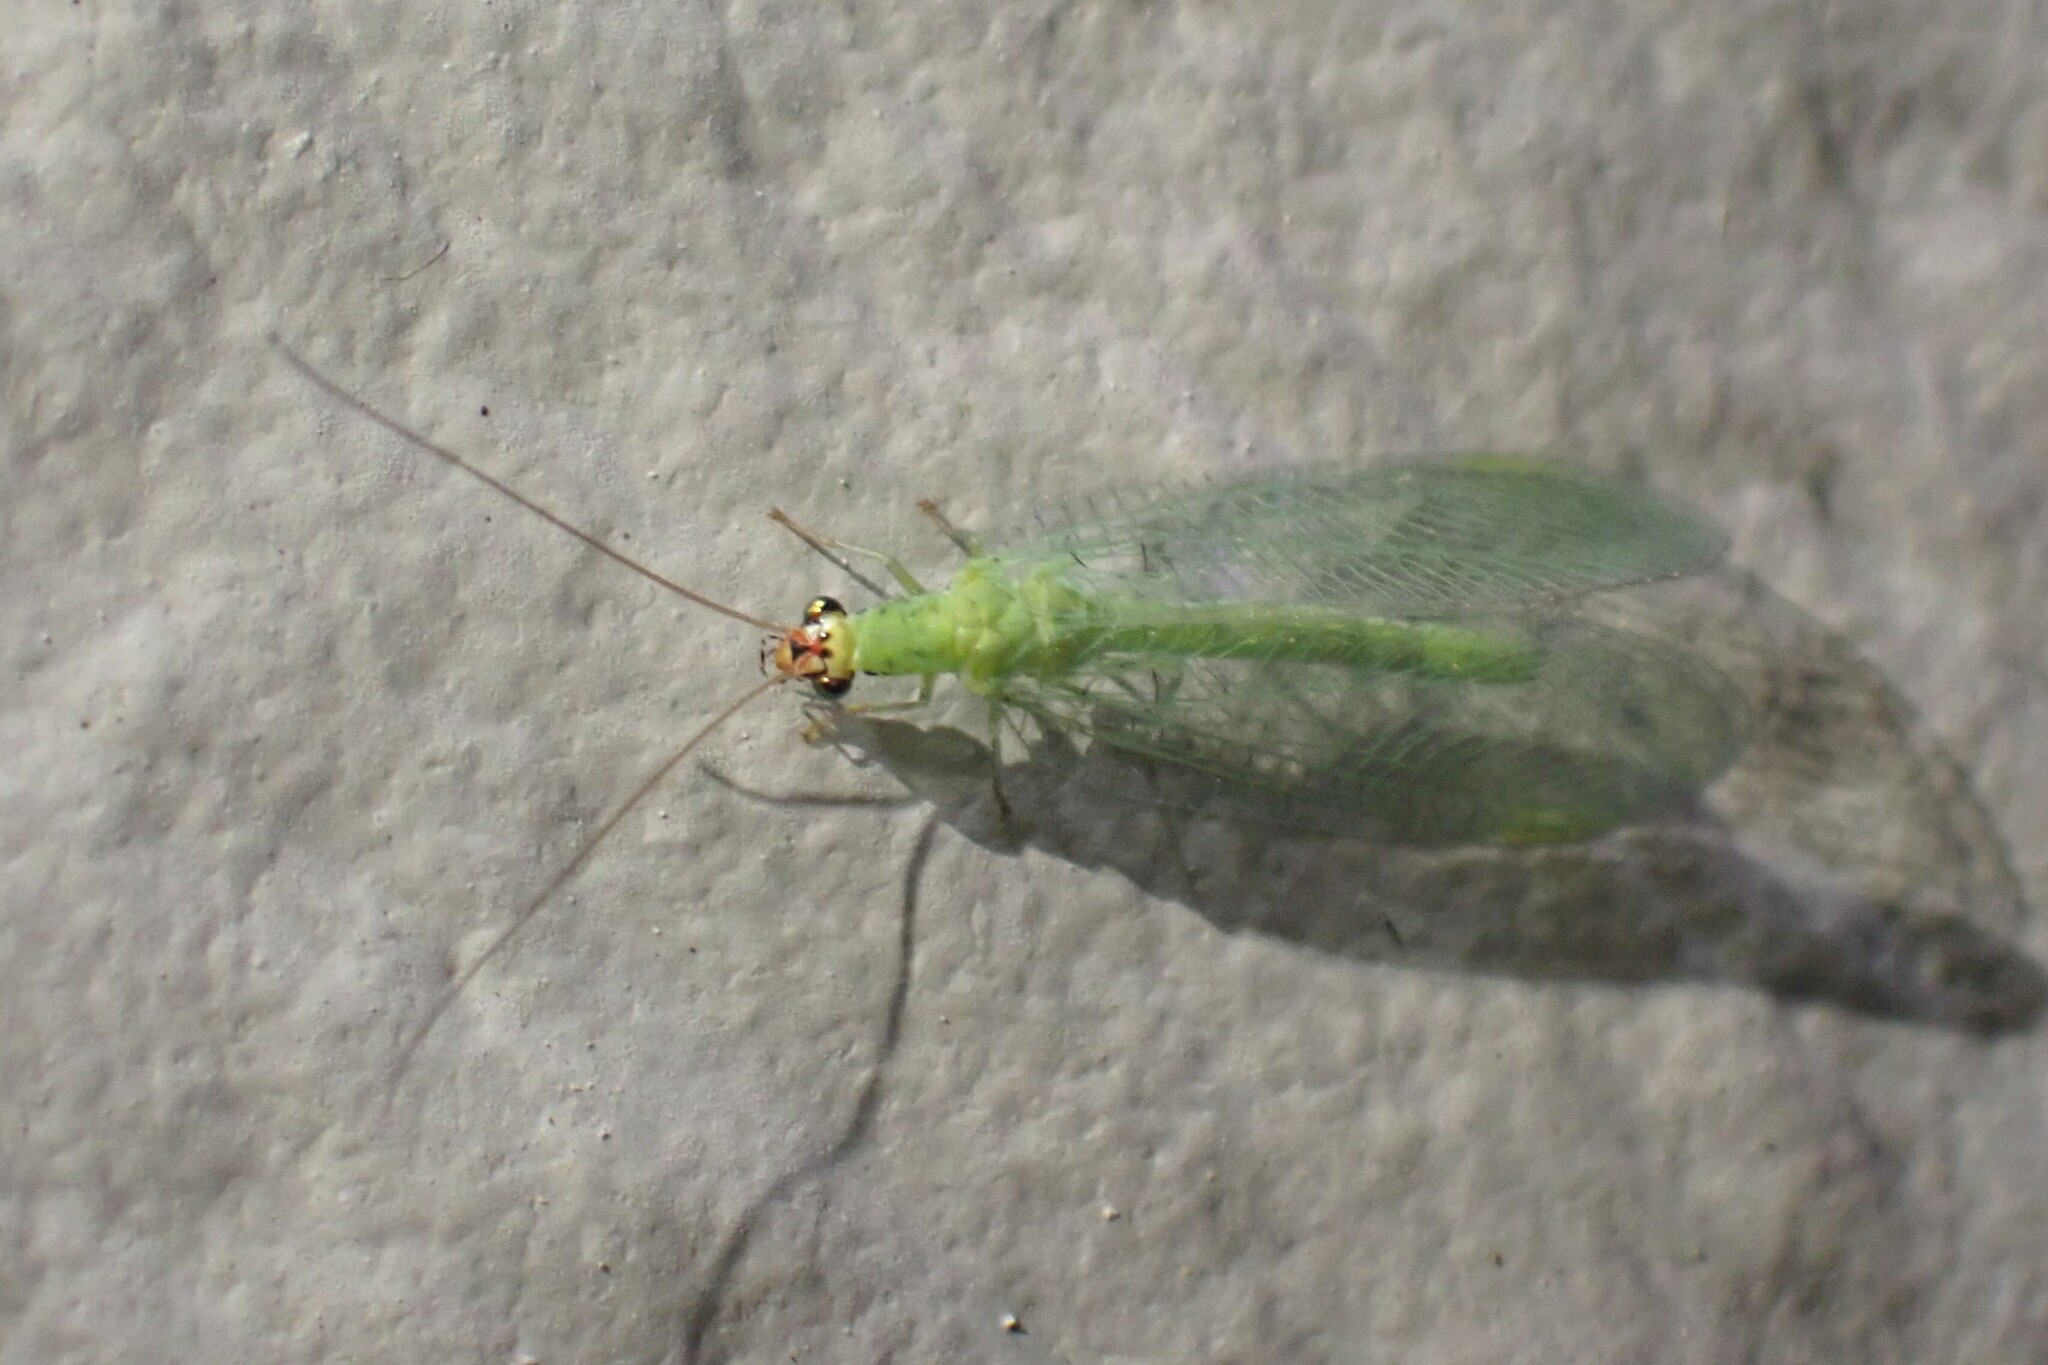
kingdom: Animalia
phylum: Arthropoda
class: Insecta
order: Neuroptera
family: Chrysopidae
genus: Chrysopa
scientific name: Chrysopa oculata
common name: Golden-eyed lacewing
